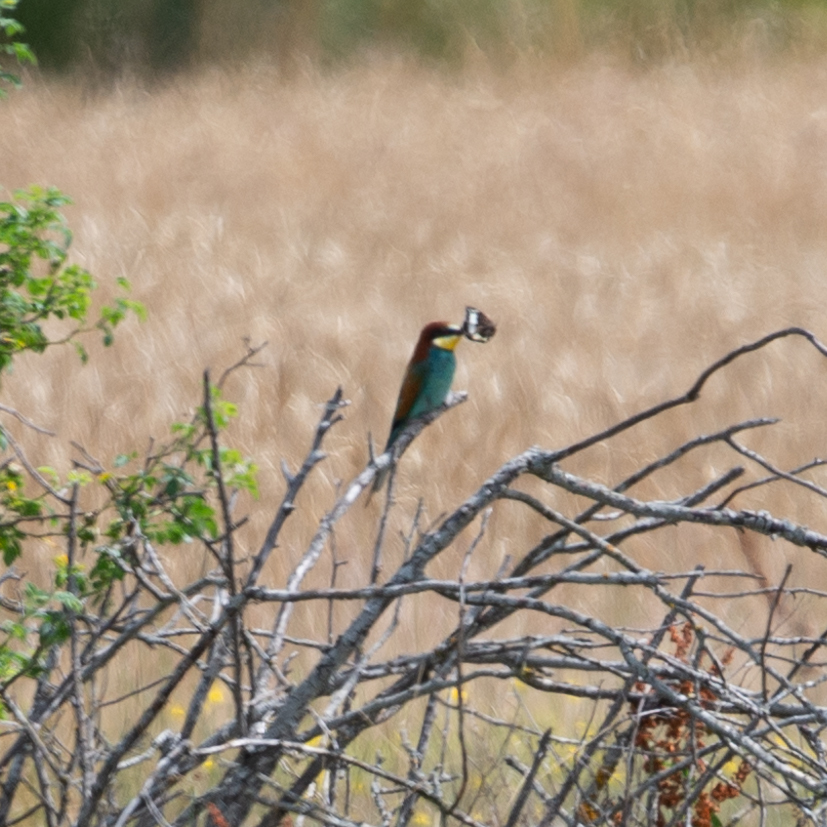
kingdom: Animalia
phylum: Chordata
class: Aves
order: Coraciiformes
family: Meropidae
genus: Merops
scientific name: Merops apiaster
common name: European bee-eater
